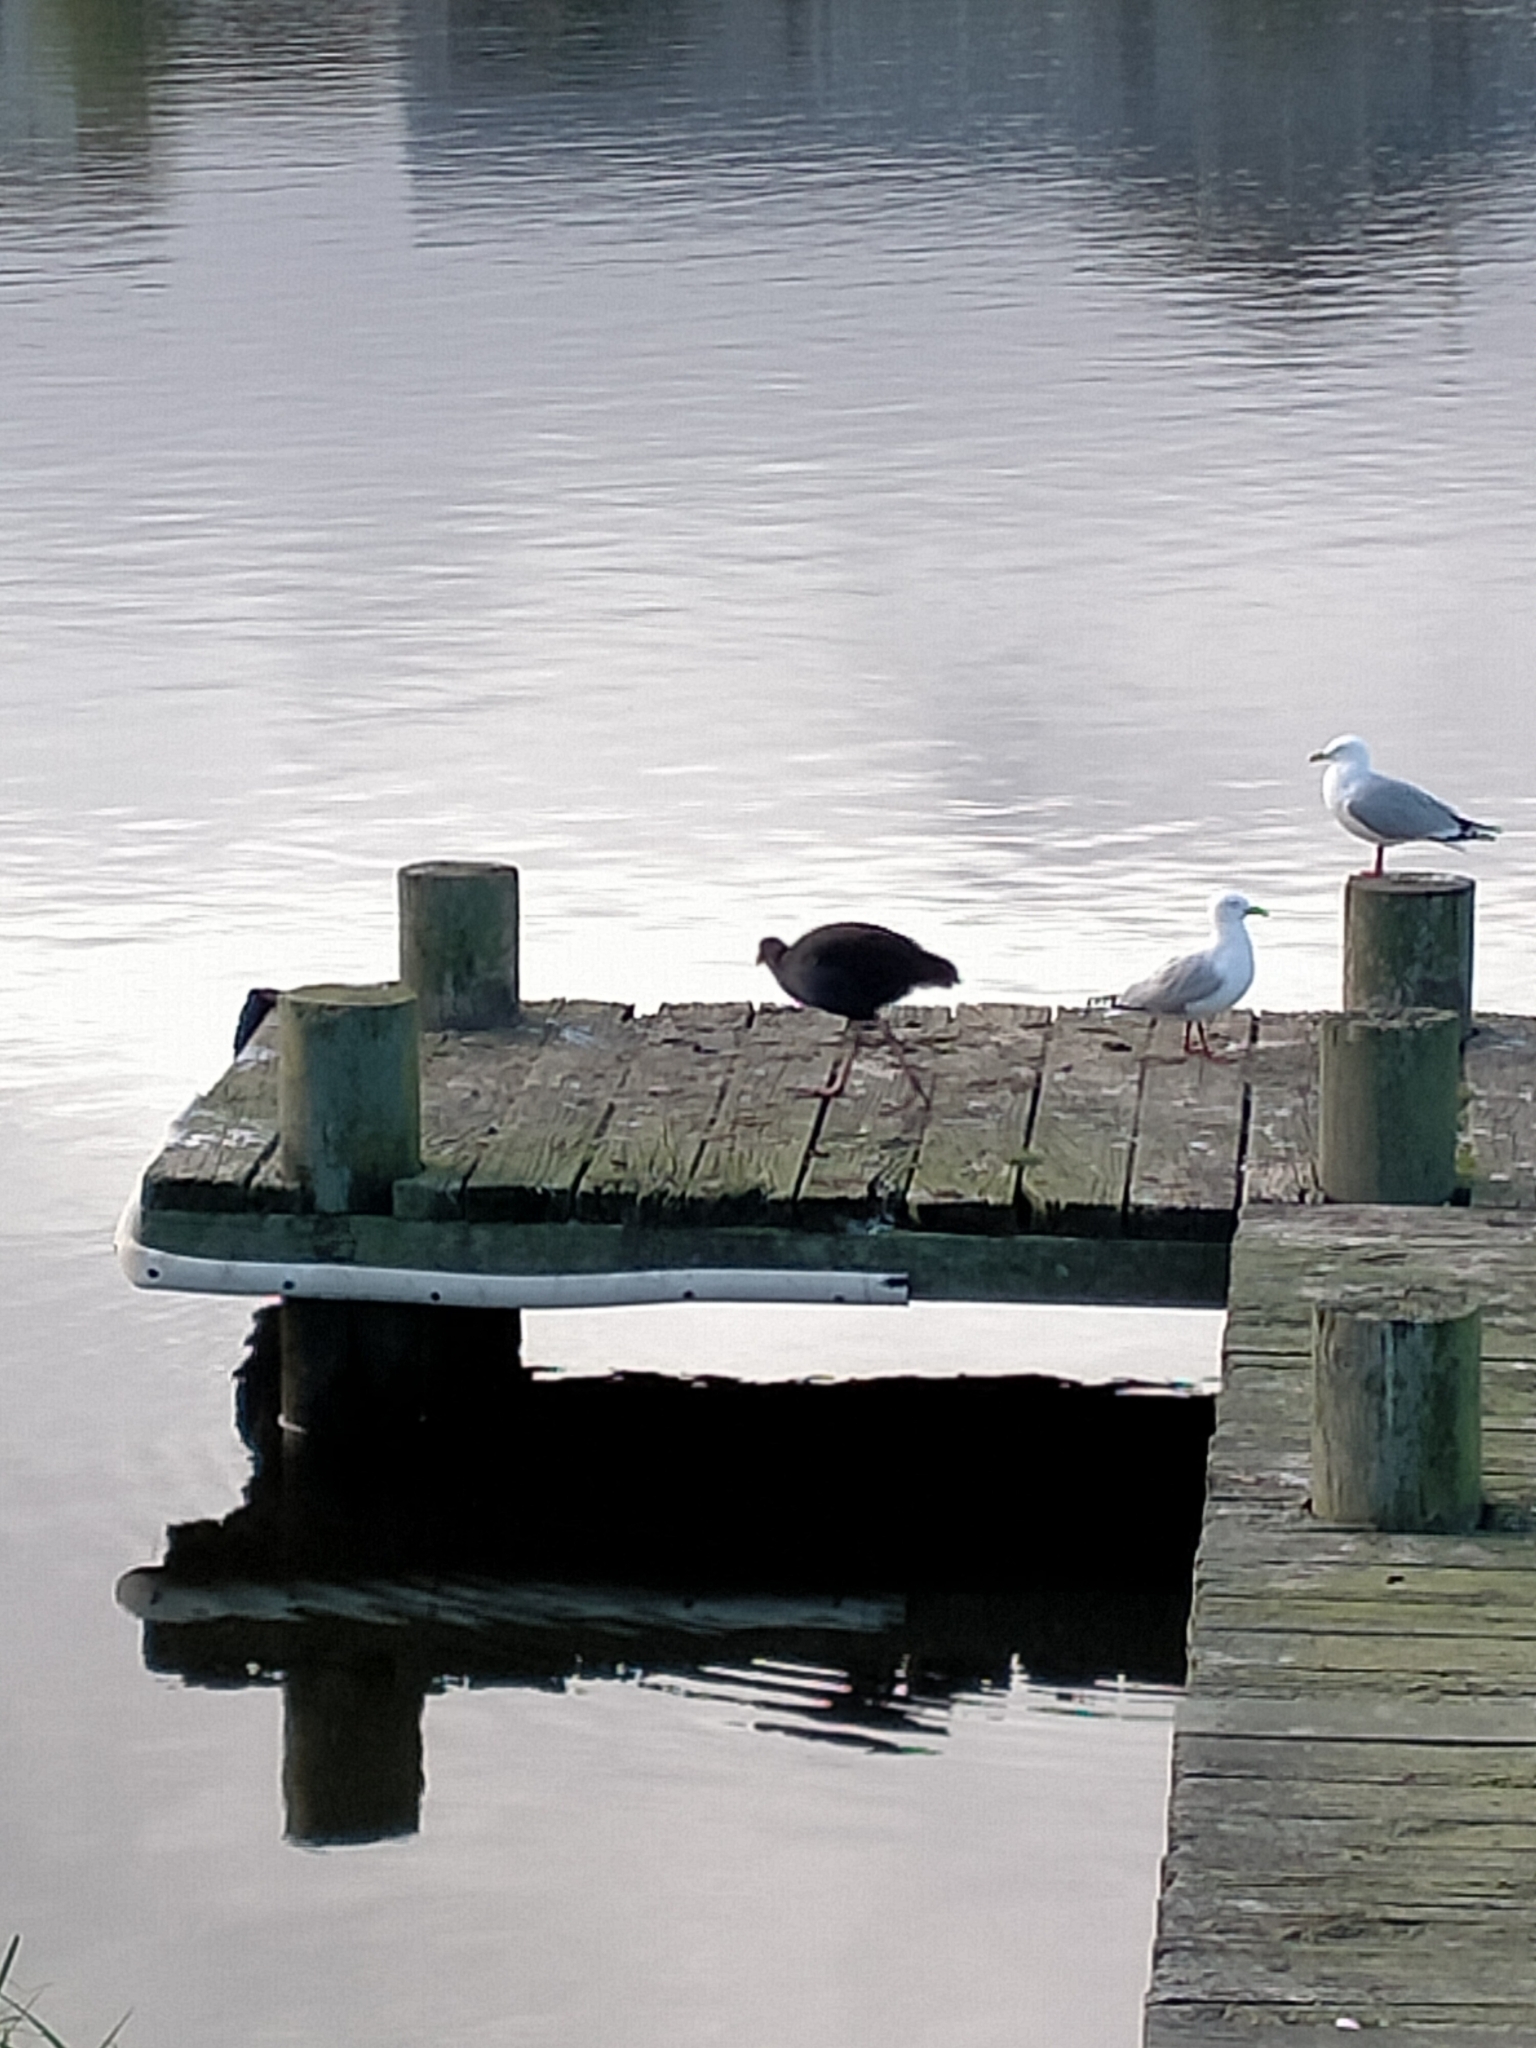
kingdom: Animalia
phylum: Chordata
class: Aves
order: Gruiformes
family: Rallidae
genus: Porphyrio
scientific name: Porphyrio melanotus
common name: Australasian swamphen
